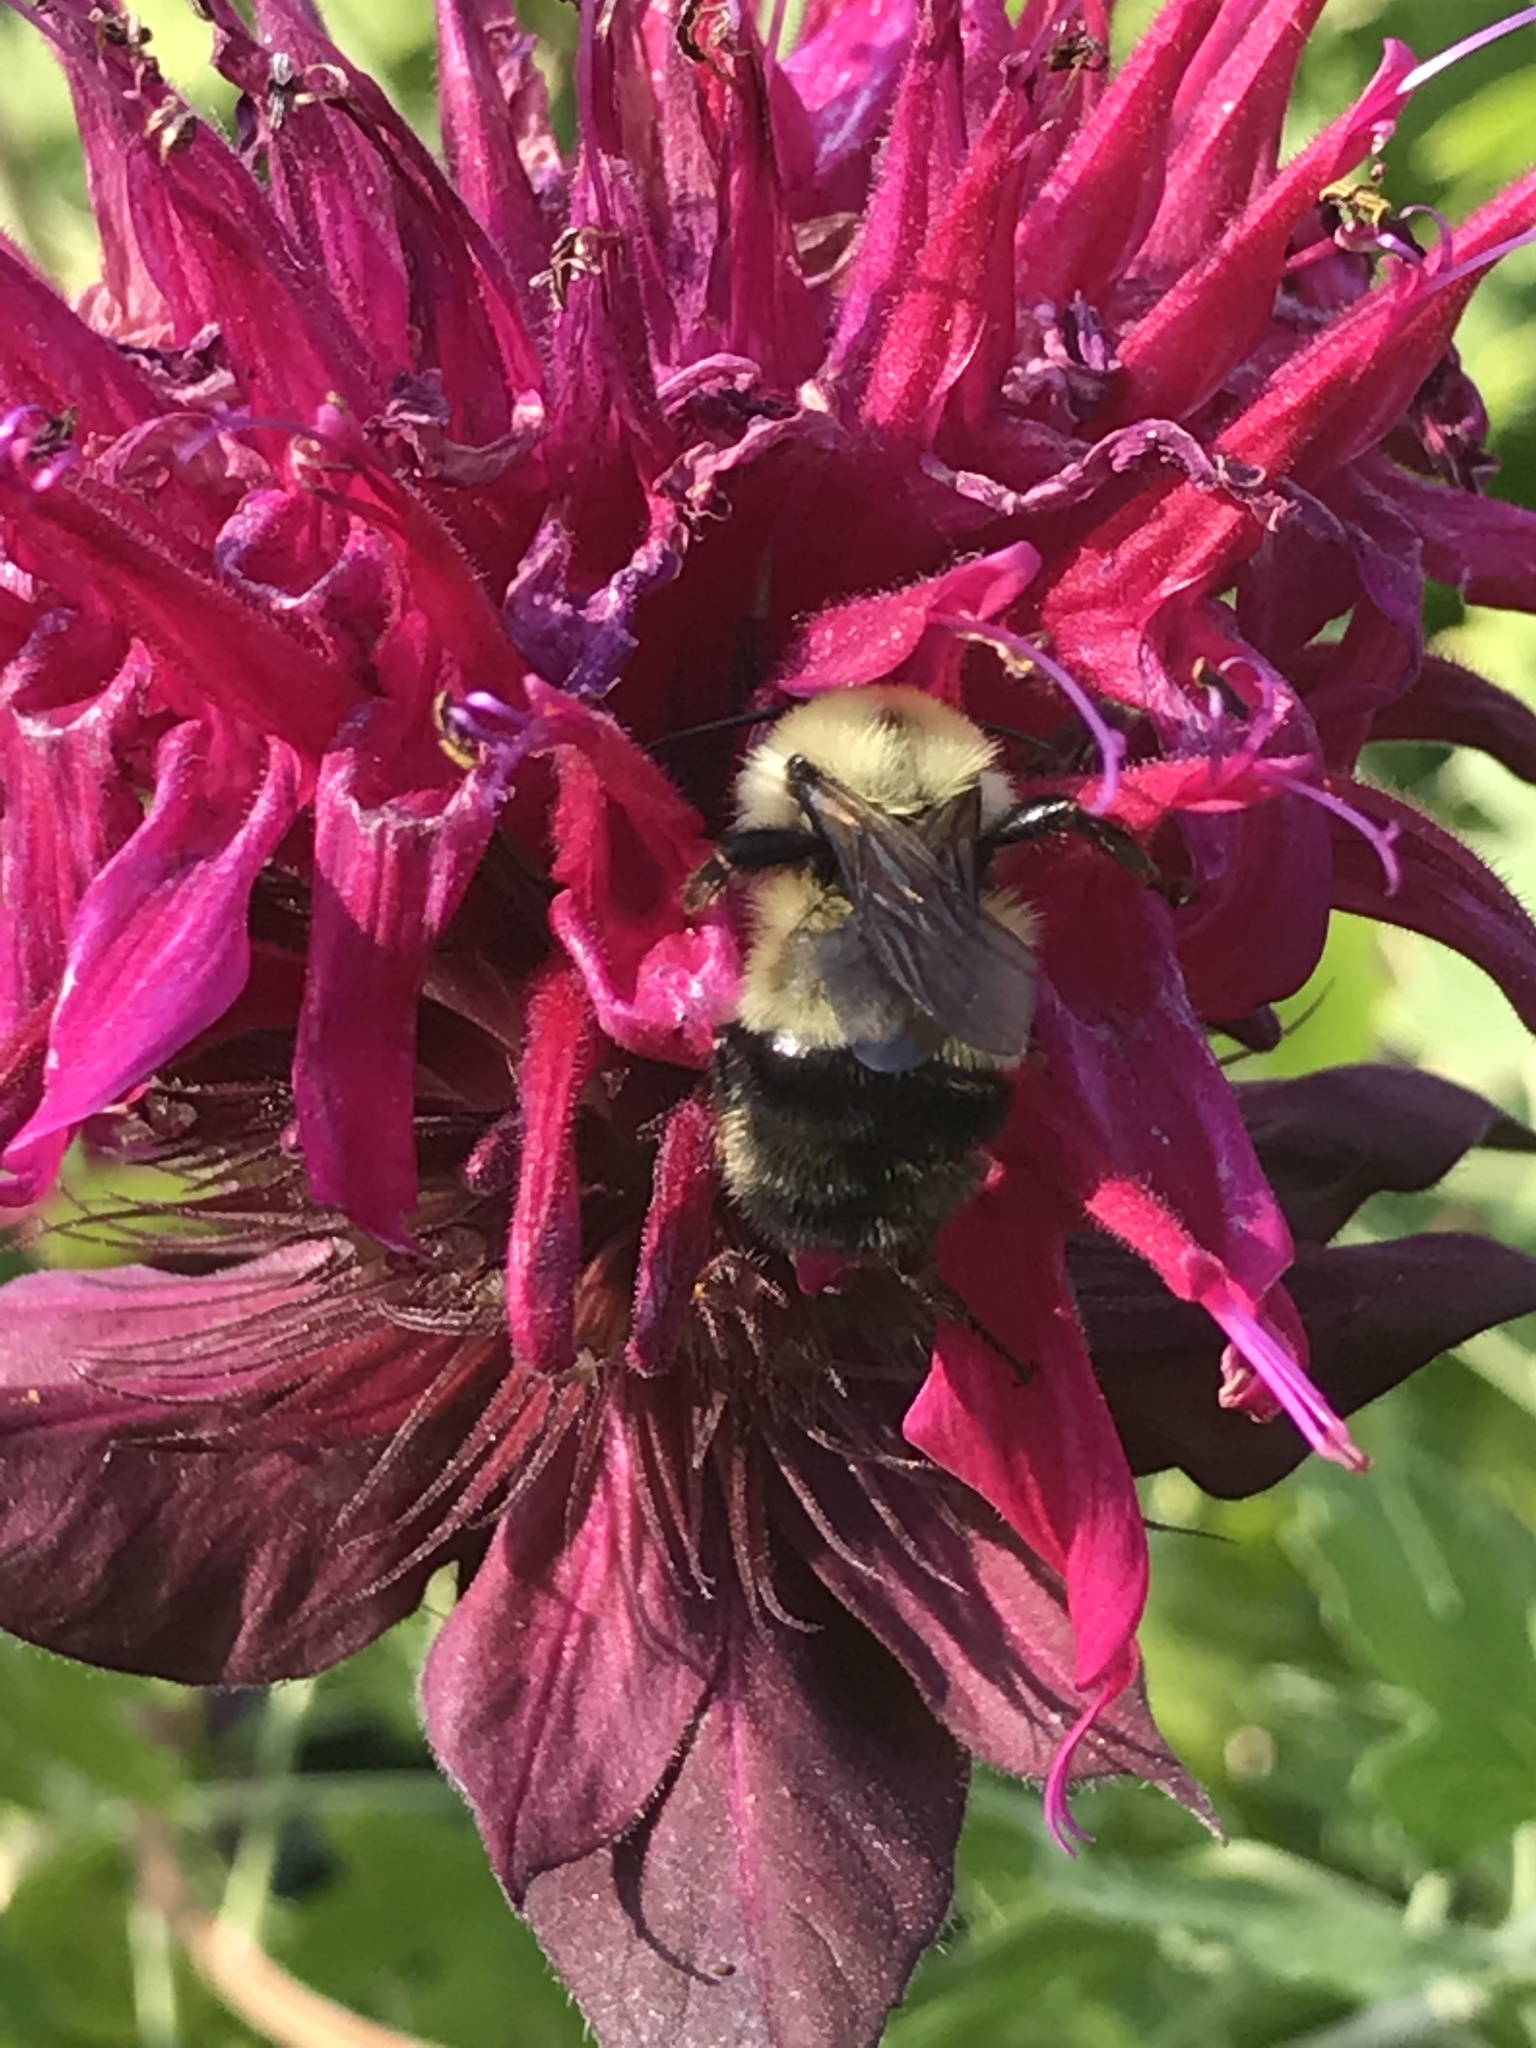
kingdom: Animalia
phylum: Arthropoda
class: Insecta
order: Hymenoptera
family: Apidae
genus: Pyrobombus
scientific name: Pyrobombus
